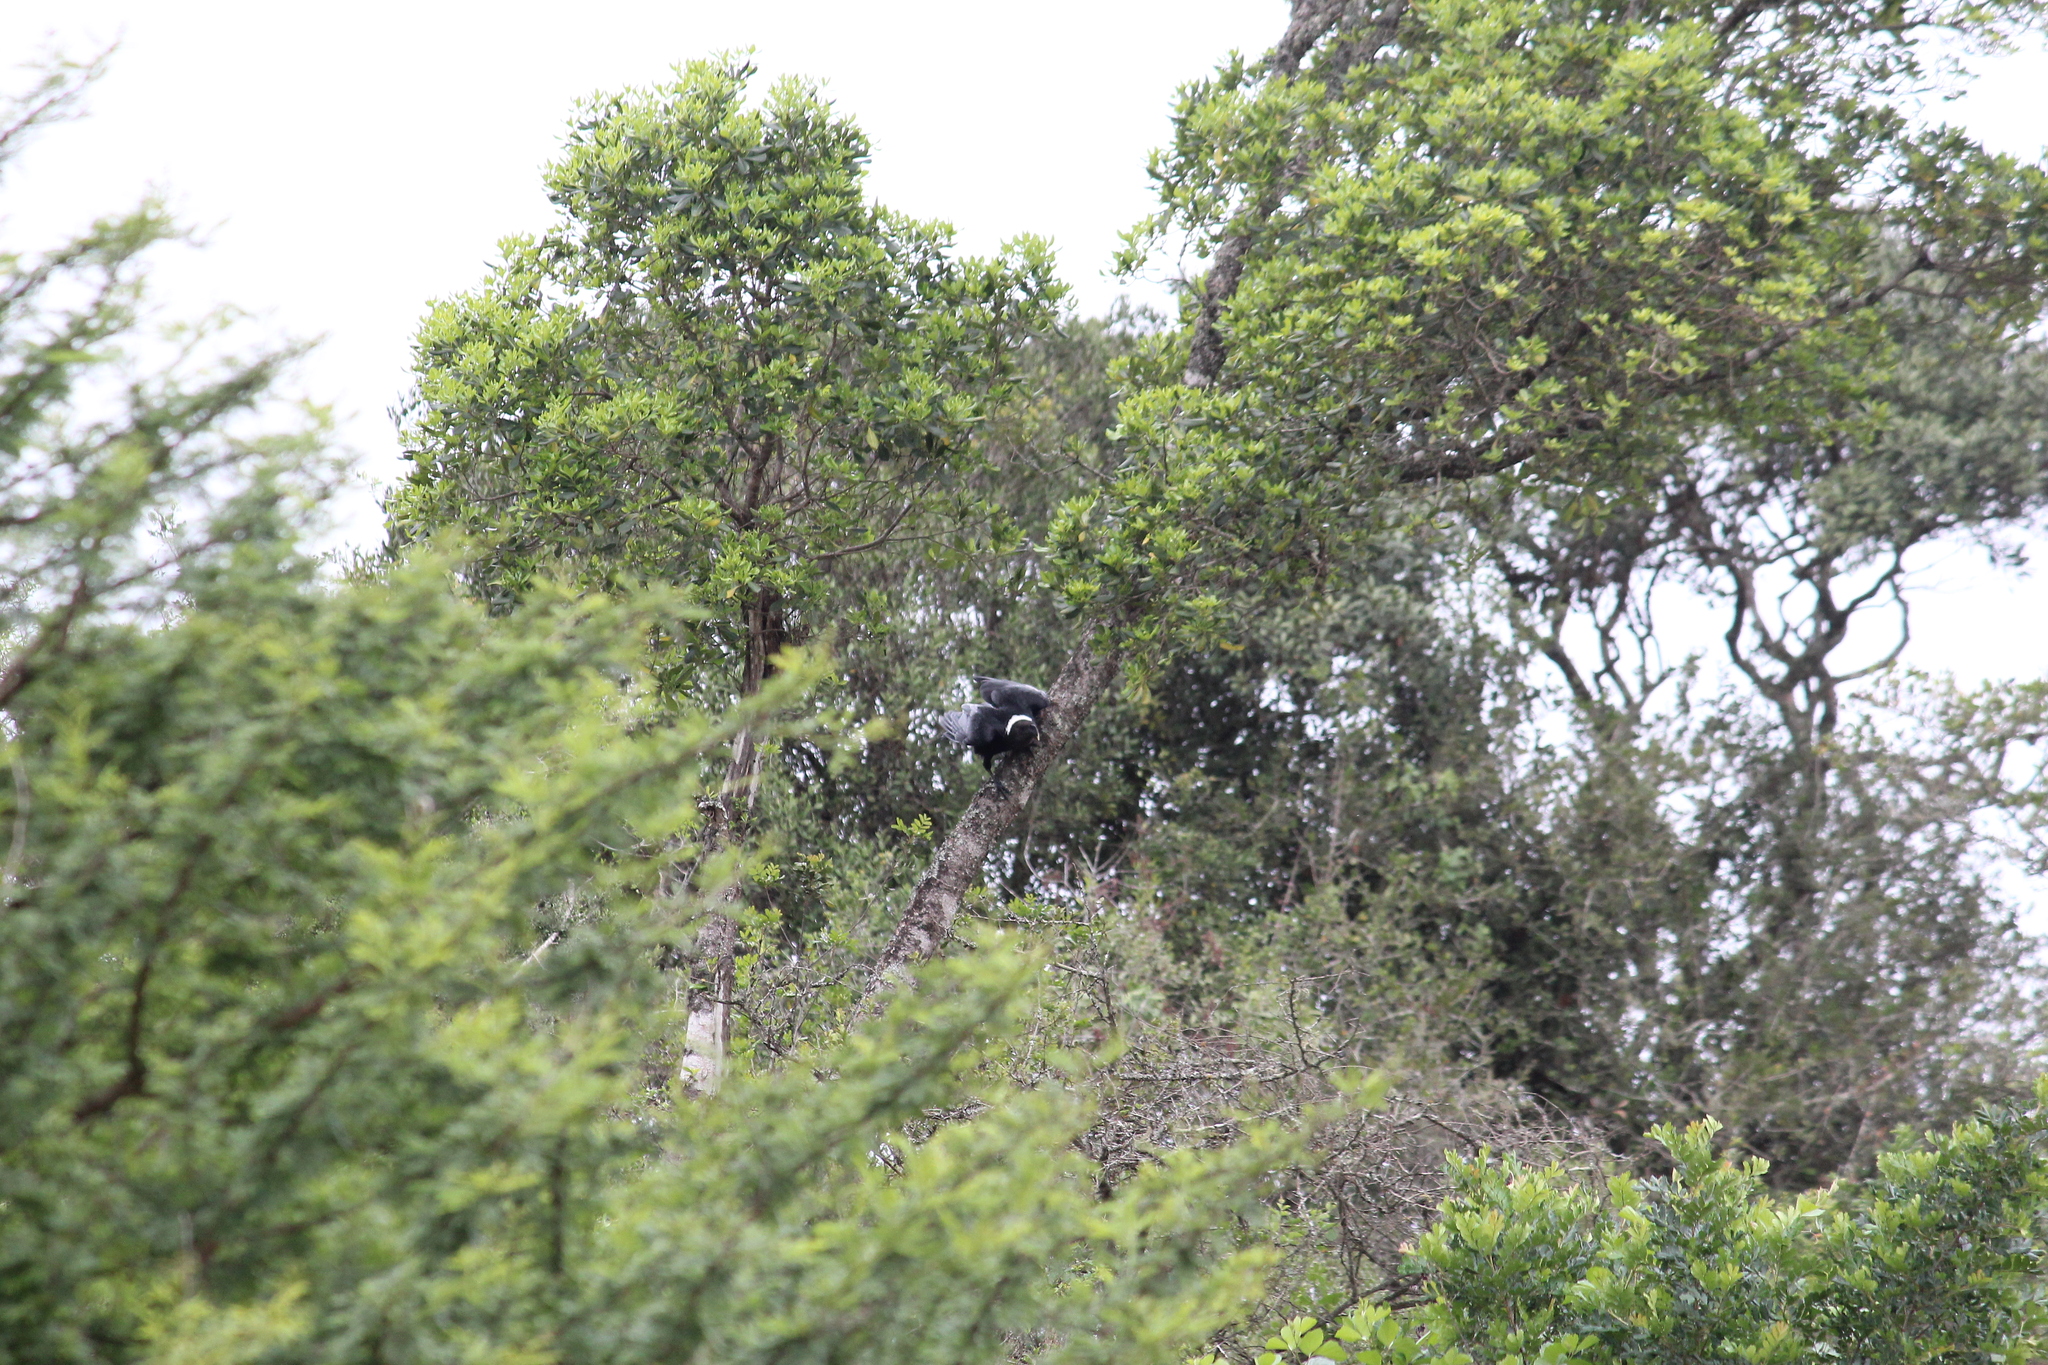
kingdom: Animalia
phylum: Chordata
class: Aves
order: Passeriformes
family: Corvidae
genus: Corvus
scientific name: Corvus albicollis
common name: White-necked raven
